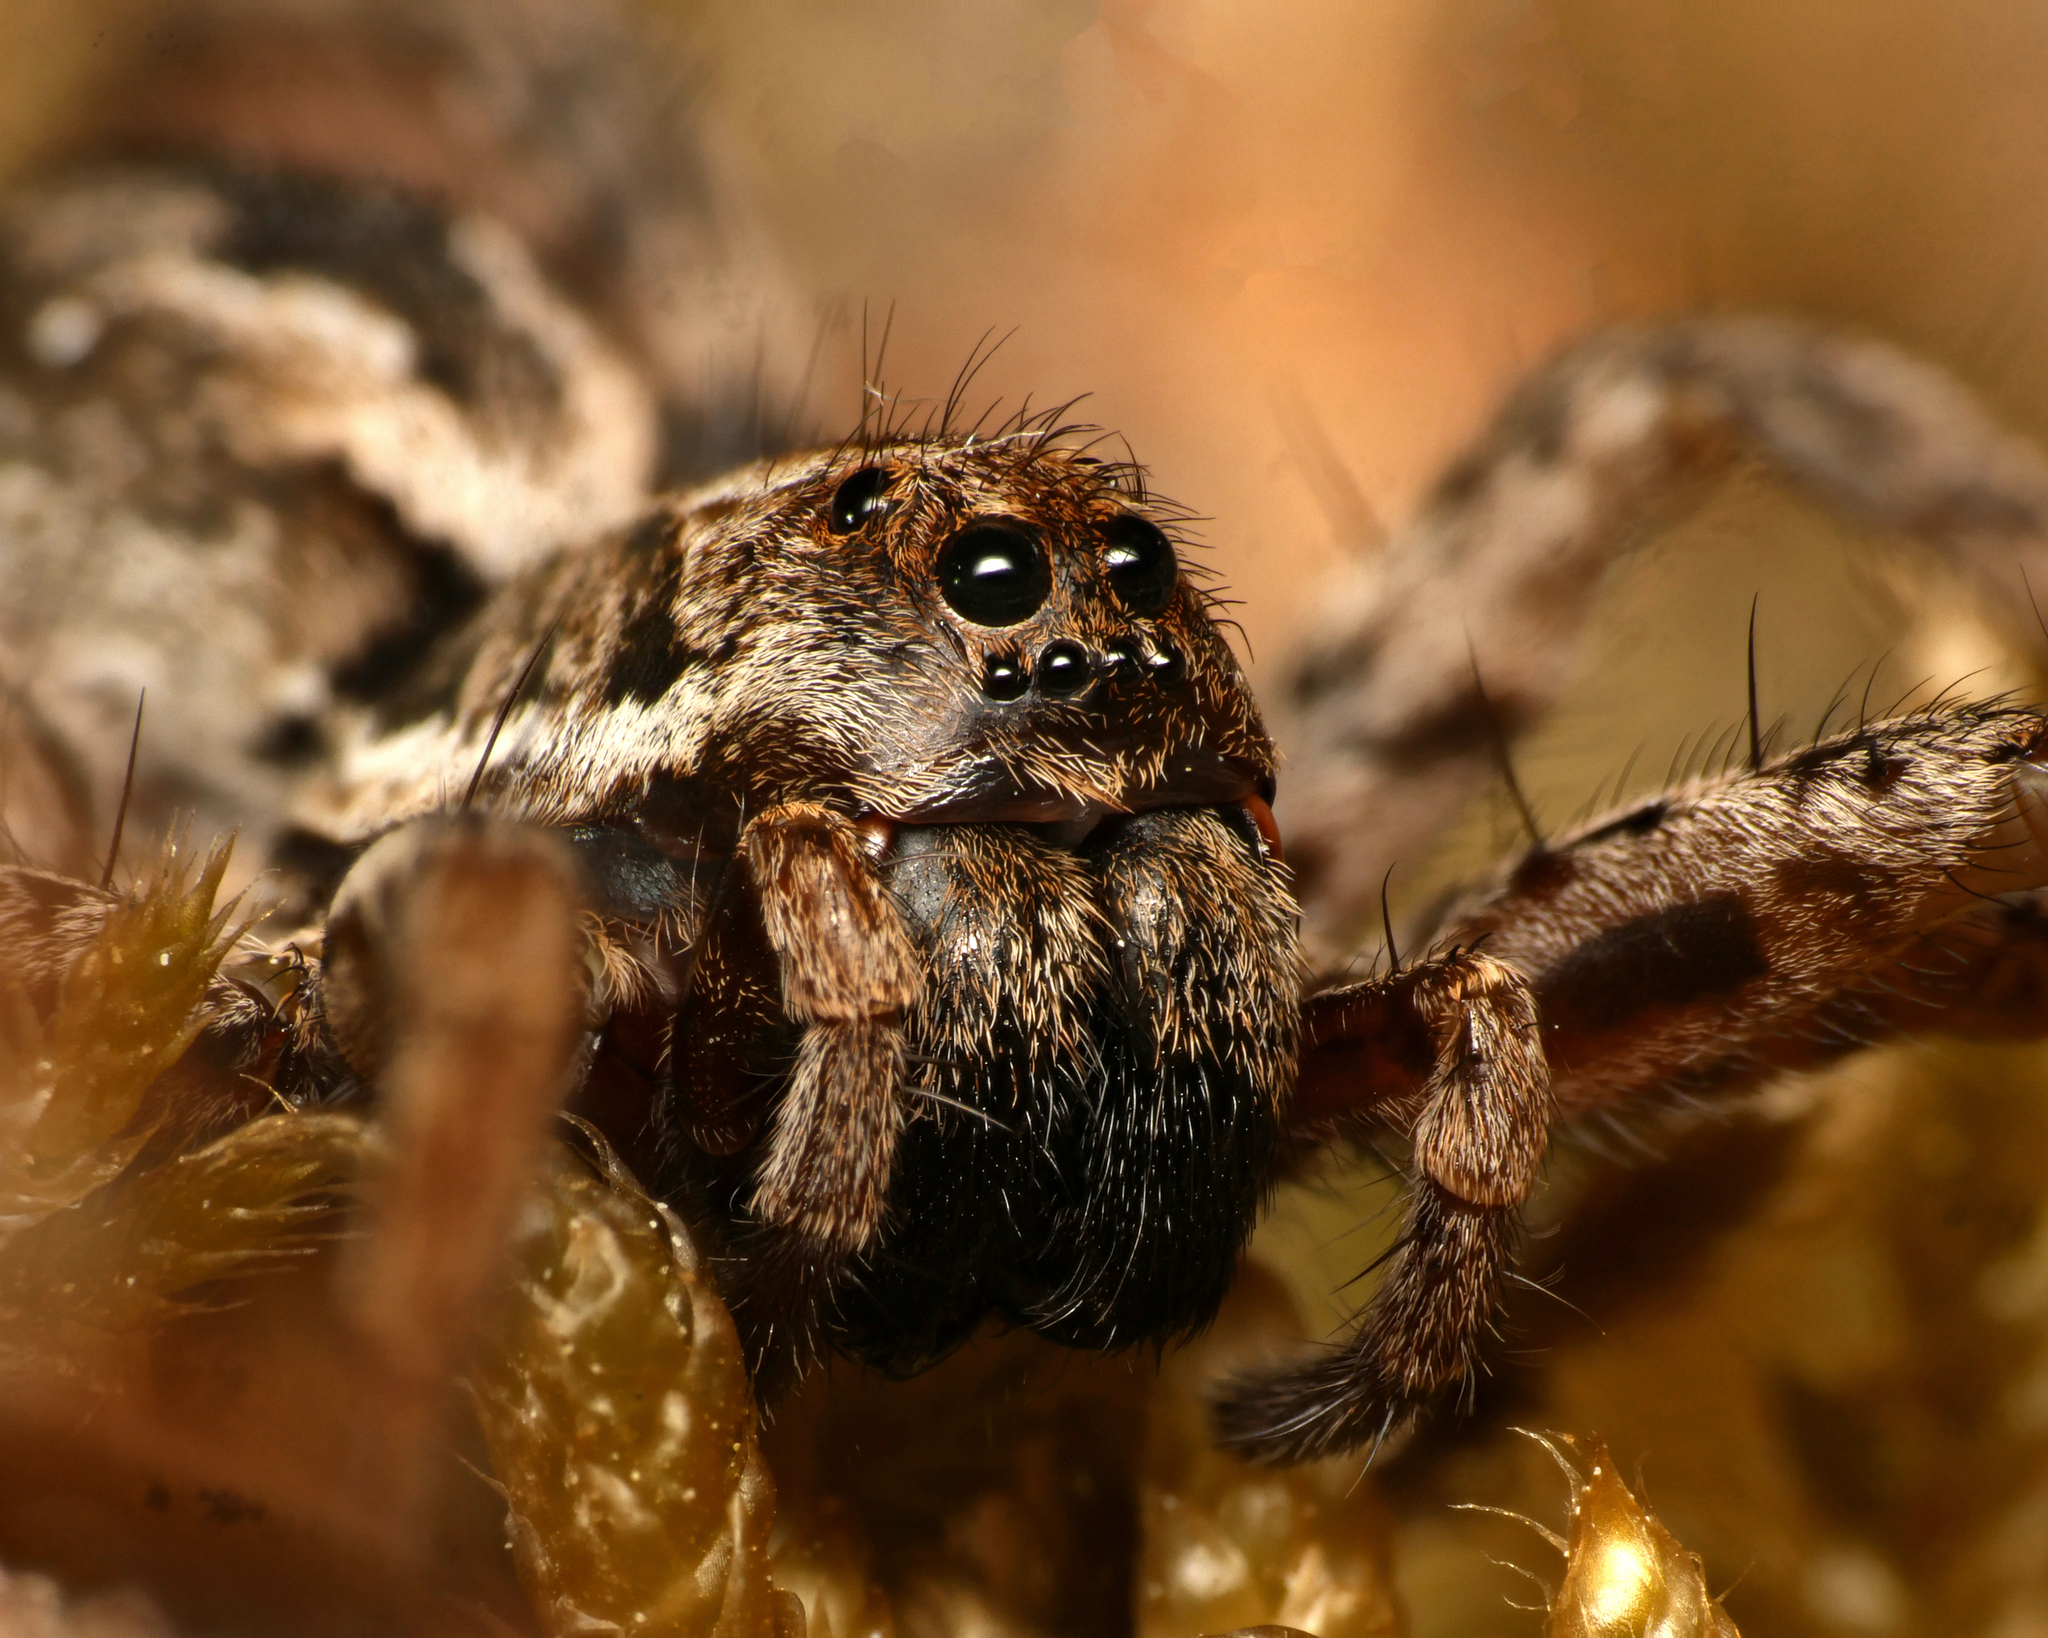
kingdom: Animalia
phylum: Arthropoda
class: Arachnida
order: Araneae
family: Lycosidae
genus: Alopecosa
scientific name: Alopecosa fabrilis
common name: Great fox-spider
